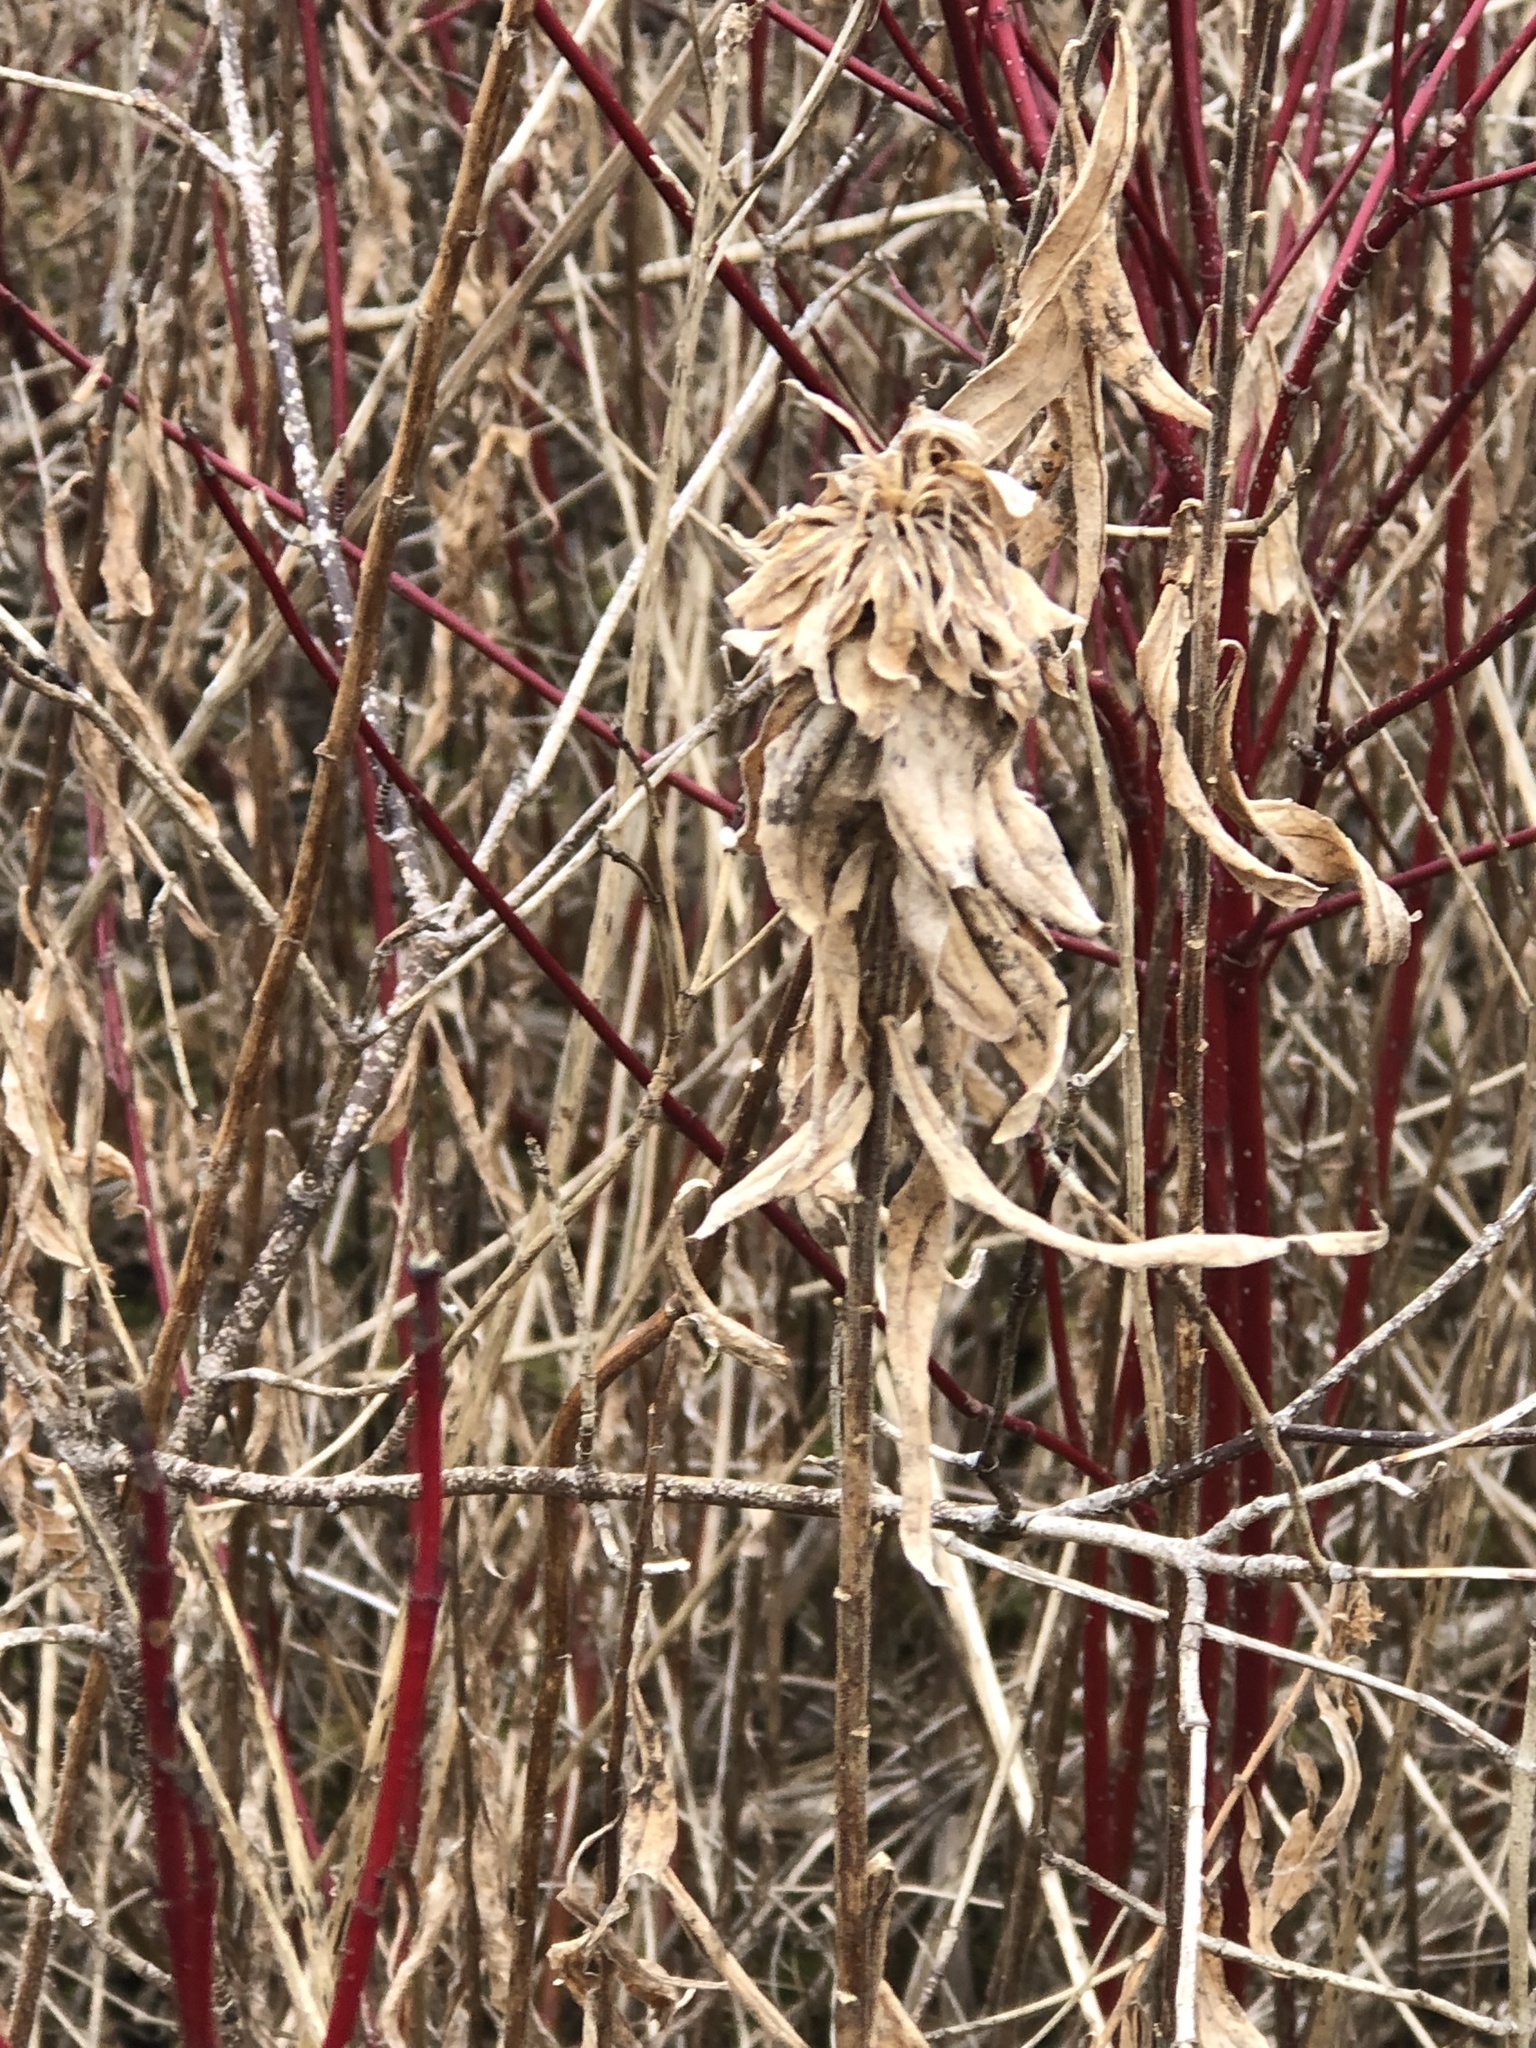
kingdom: Animalia
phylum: Arthropoda
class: Insecta
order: Diptera
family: Cecidomyiidae
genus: Rhopalomyia
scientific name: Rhopalomyia solidaginis
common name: Goldenrod bunch gall midge
